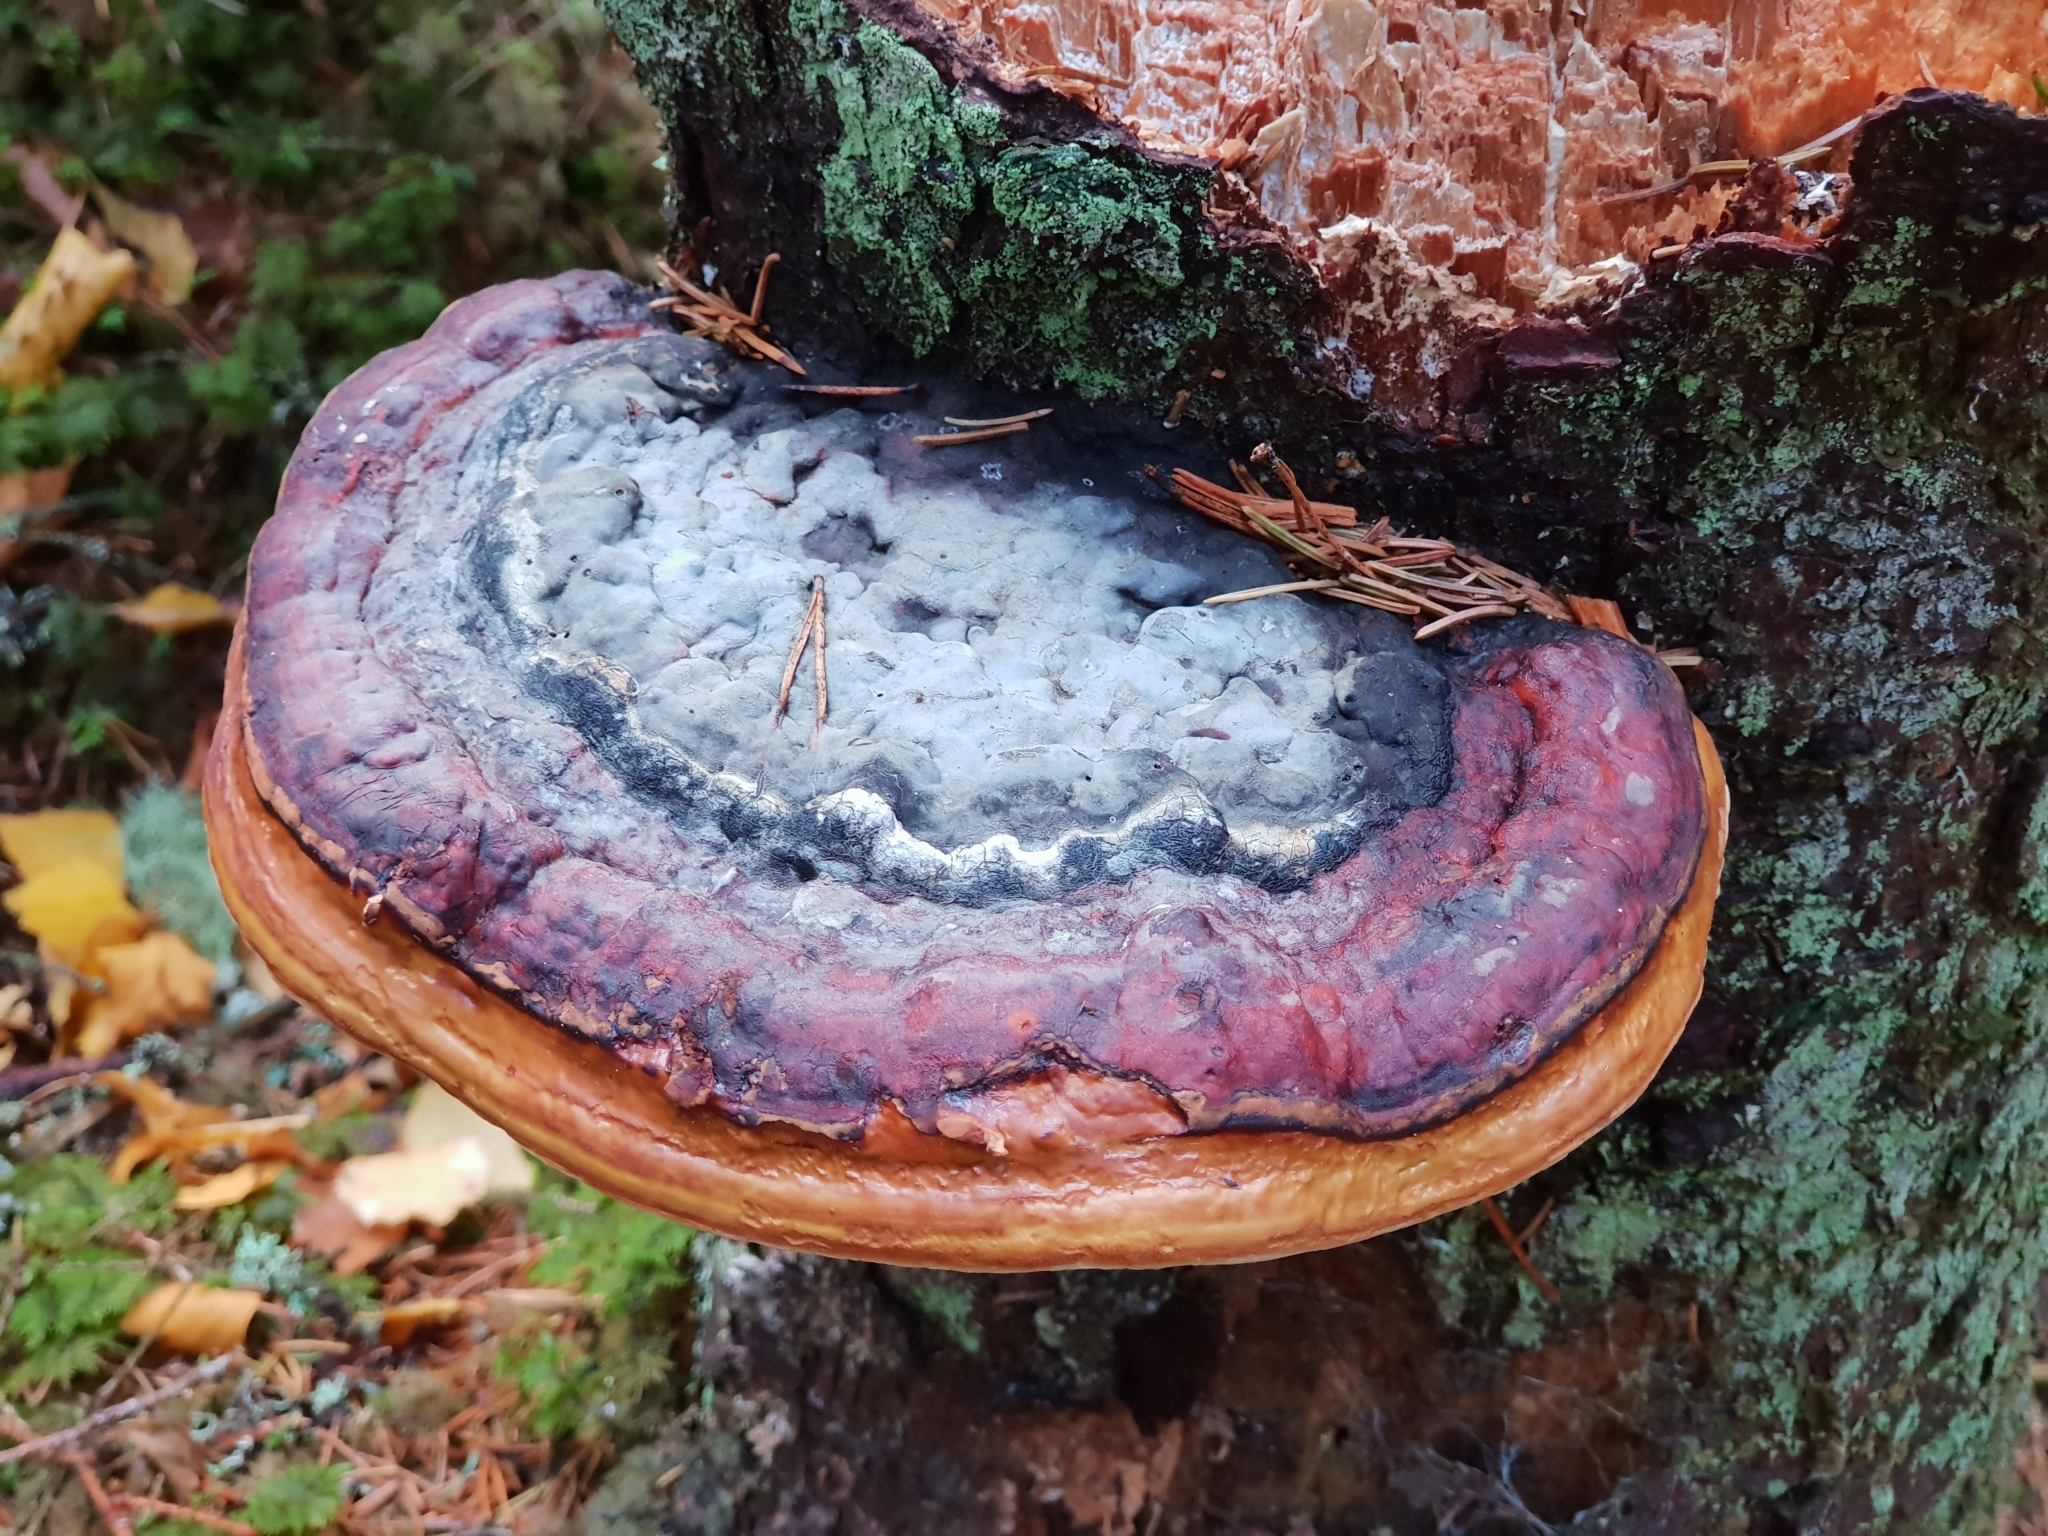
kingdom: Fungi
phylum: Basidiomycota
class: Agaricomycetes
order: Polyporales
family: Fomitopsidaceae
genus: Fomitopsis
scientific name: Fomitopsis pinicola
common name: Red-belted bracket
